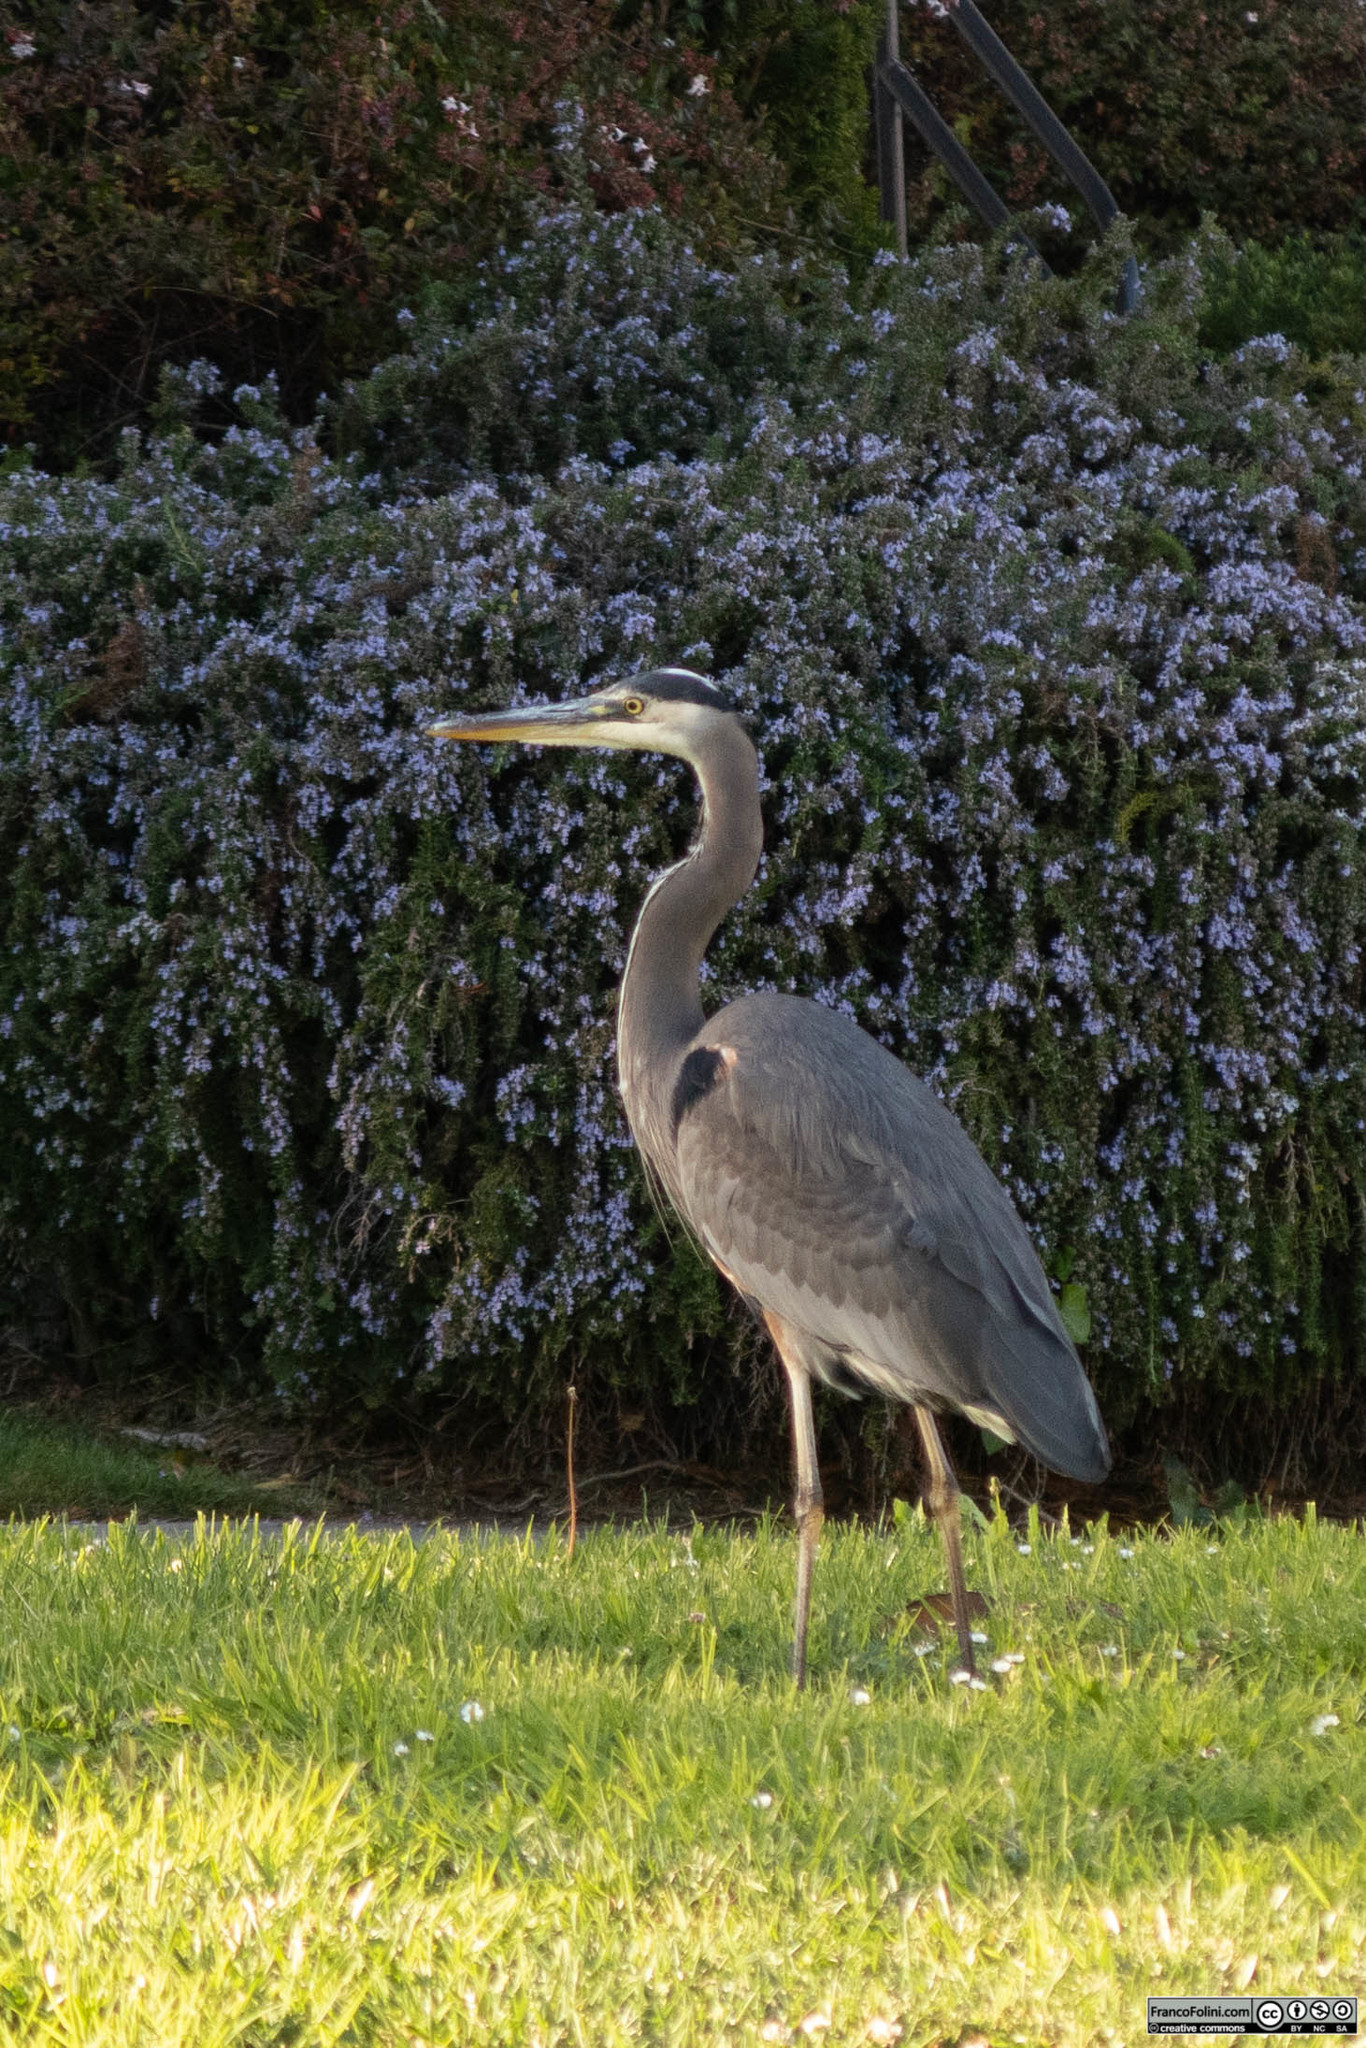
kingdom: Animalia
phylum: Chordata
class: Aves
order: Pelecaniformes
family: Ardeidae
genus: Ardea
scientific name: Ardea herodias
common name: Great blue heron
